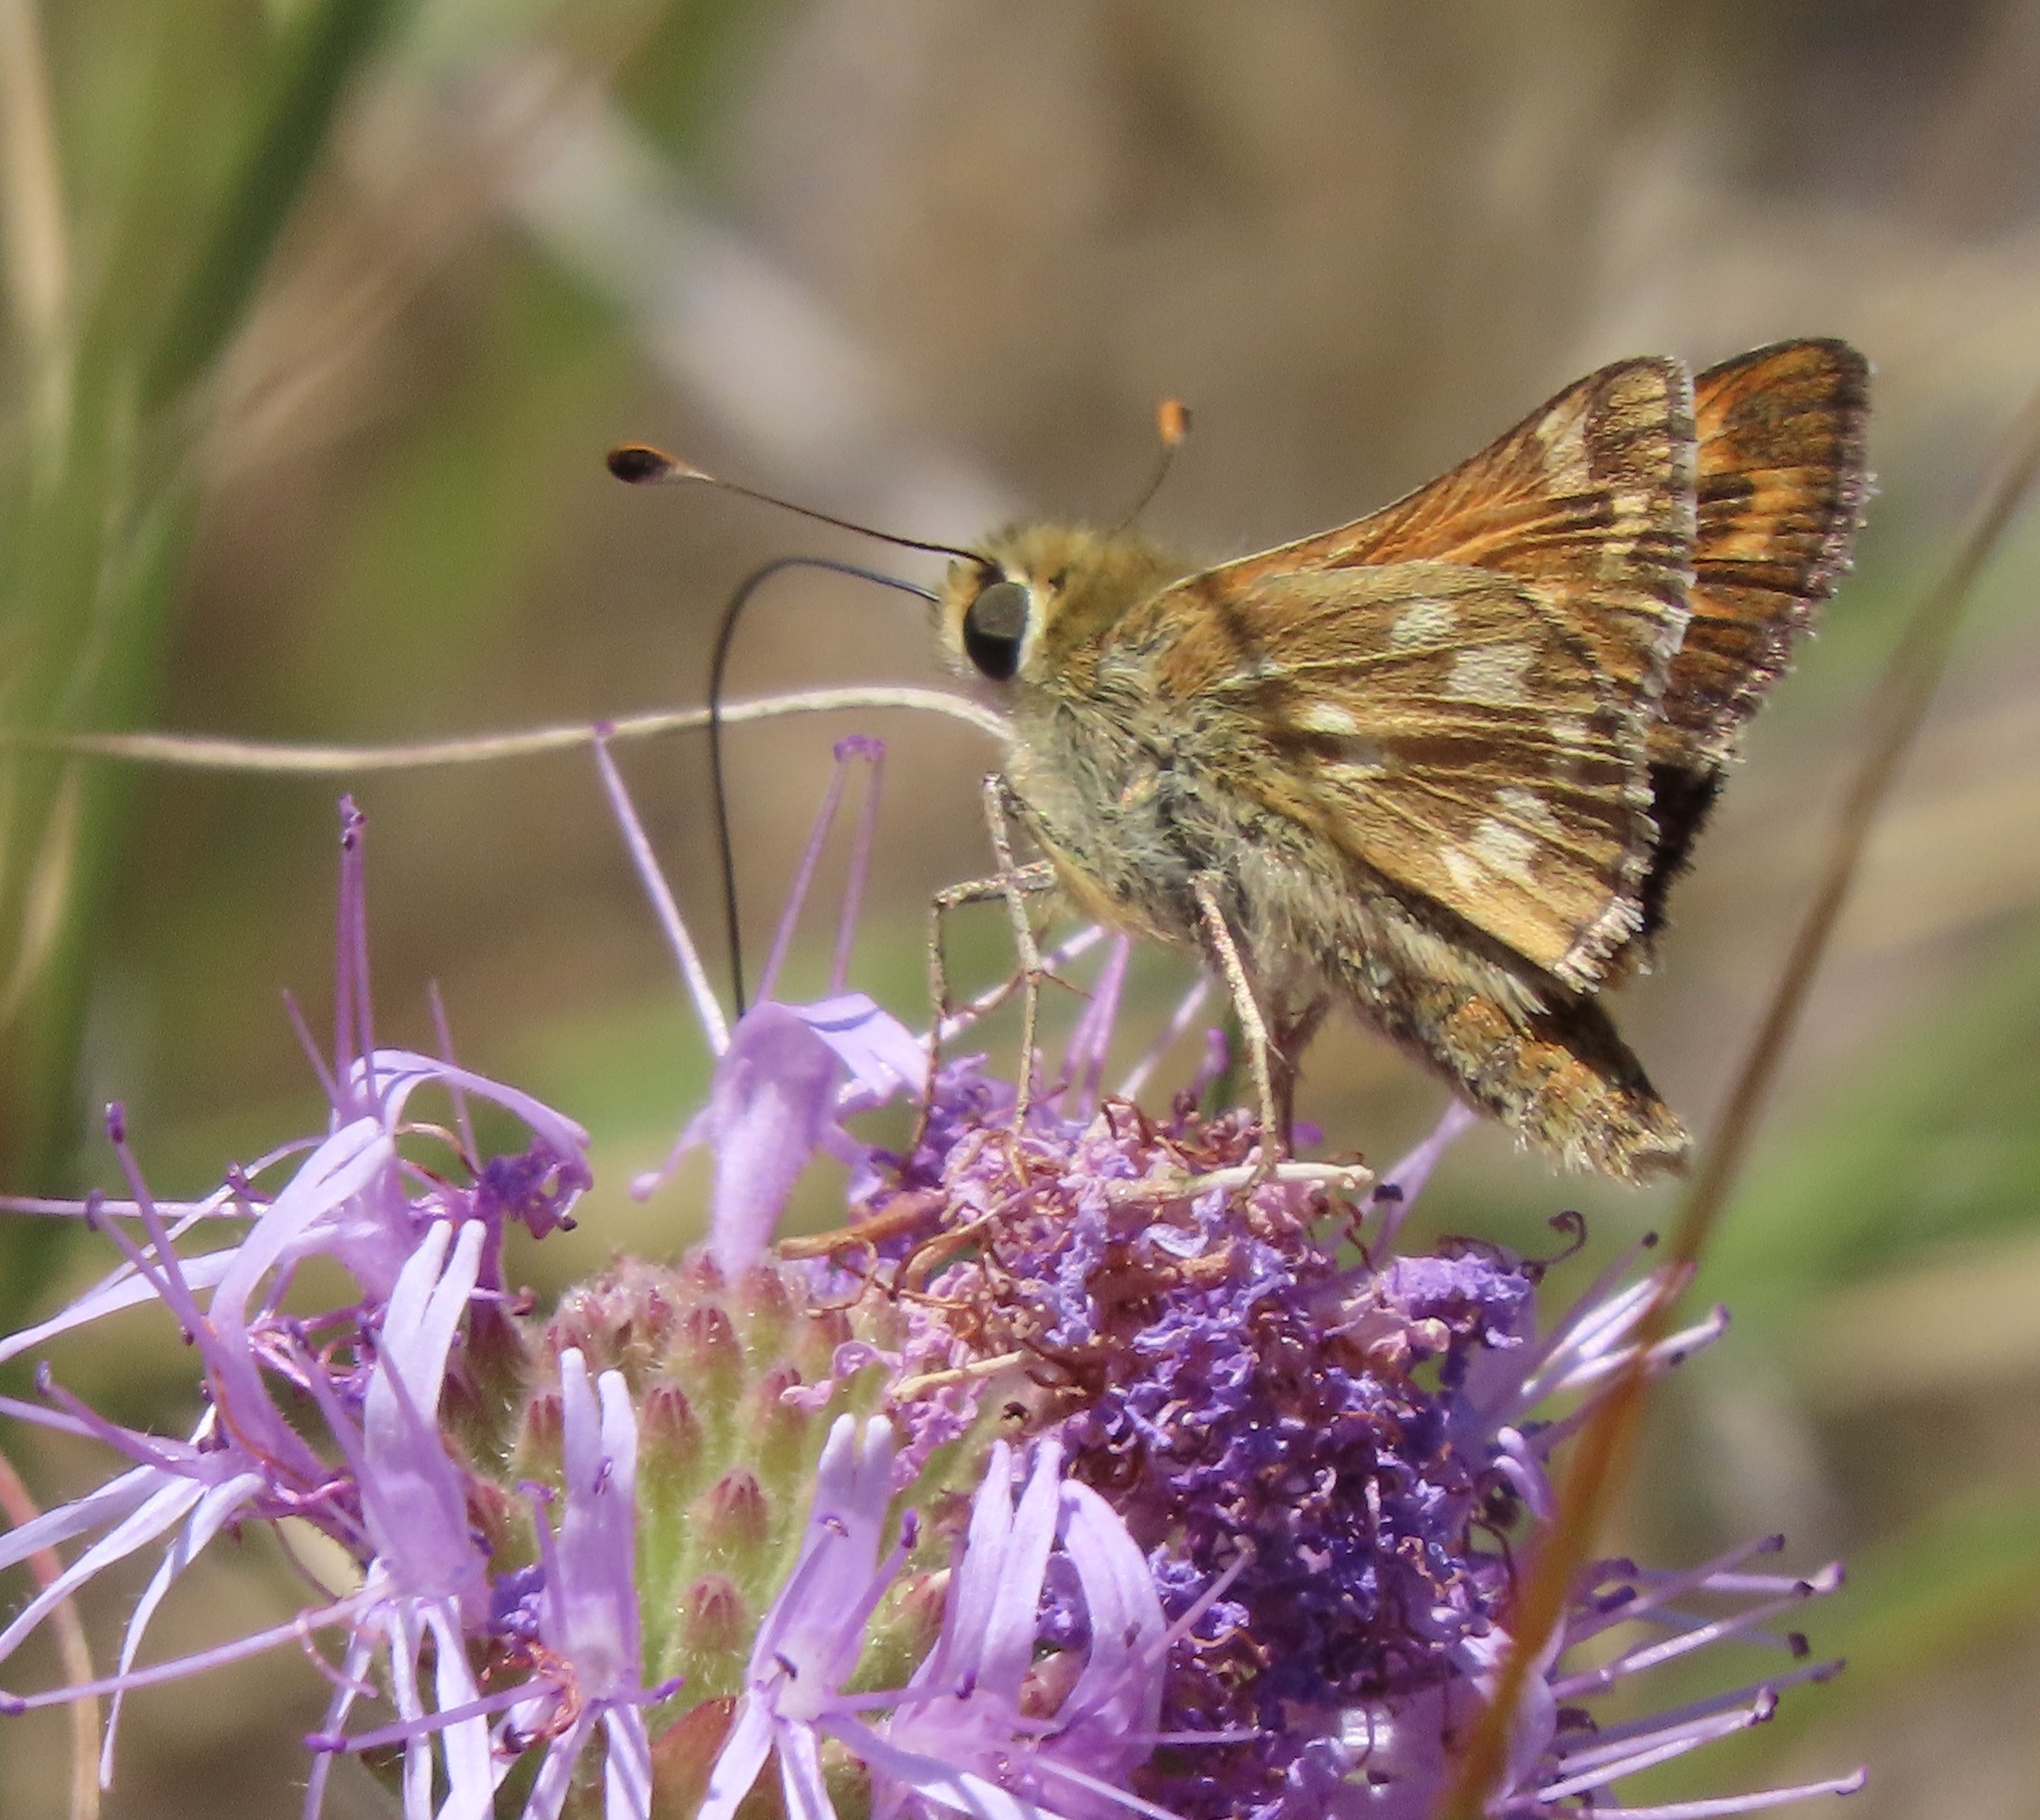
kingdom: Animalia
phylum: Arthropoda
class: Insecta
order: Lepidoptera
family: Hesperiidae
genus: Hesperia
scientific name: Hesperia lindseyi
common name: Lindsey's skipper
